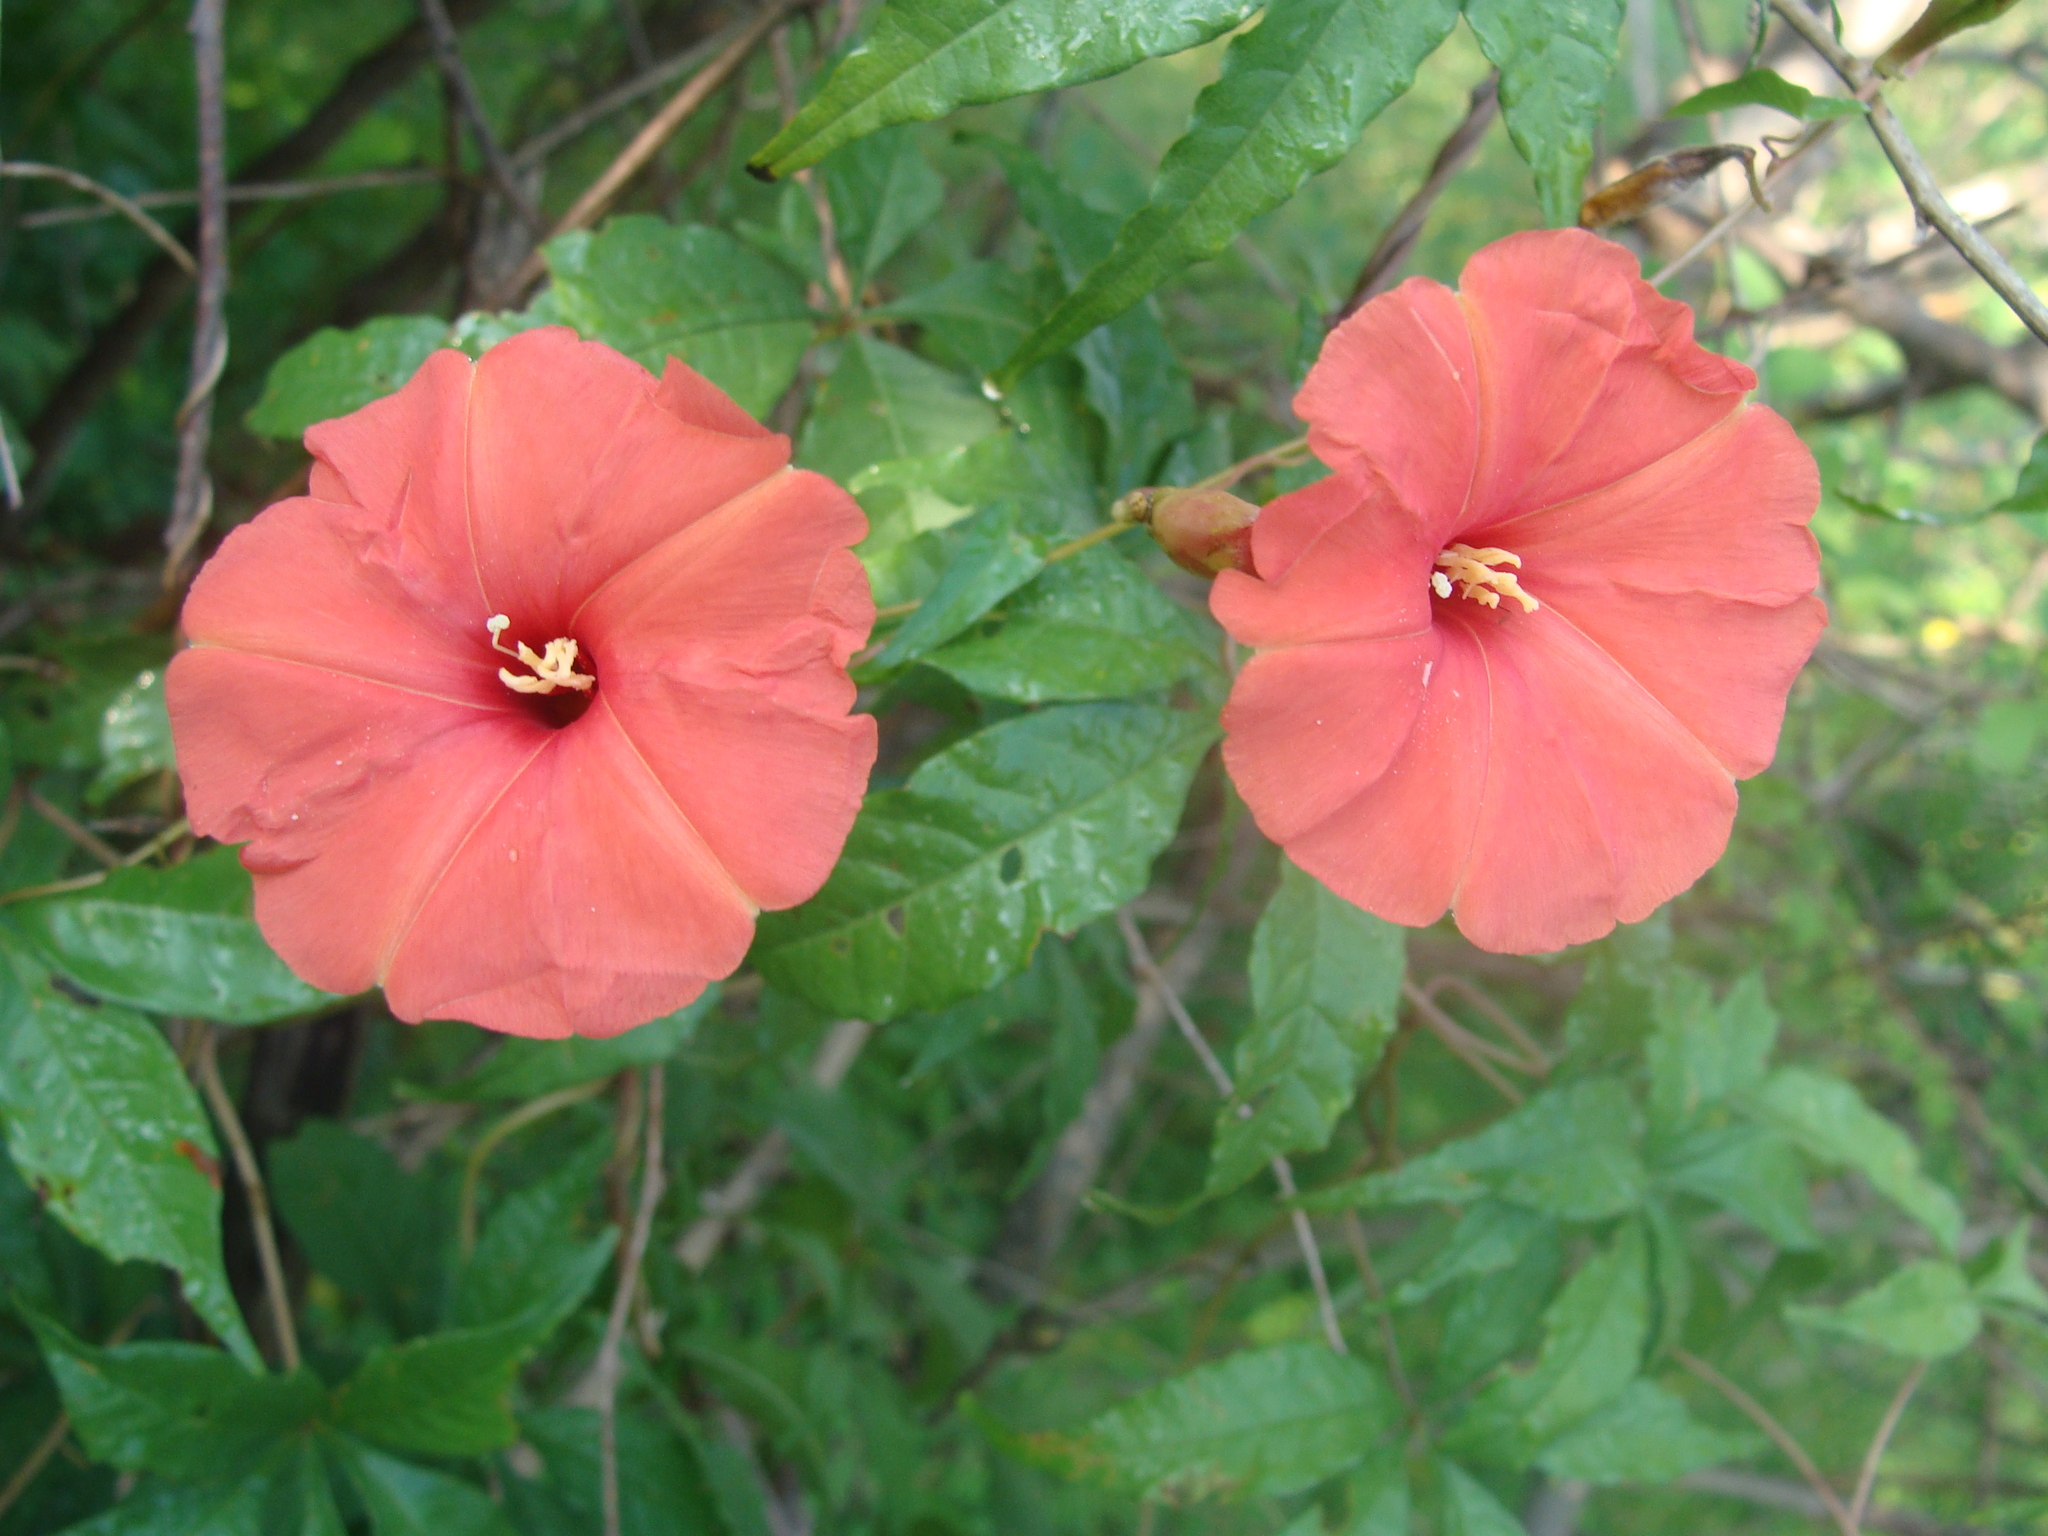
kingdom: Plantae
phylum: Tracheophyta
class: Magnoliopsida
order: Solanales
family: Convolvulaceae
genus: Operculina
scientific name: Operculina pteripes
